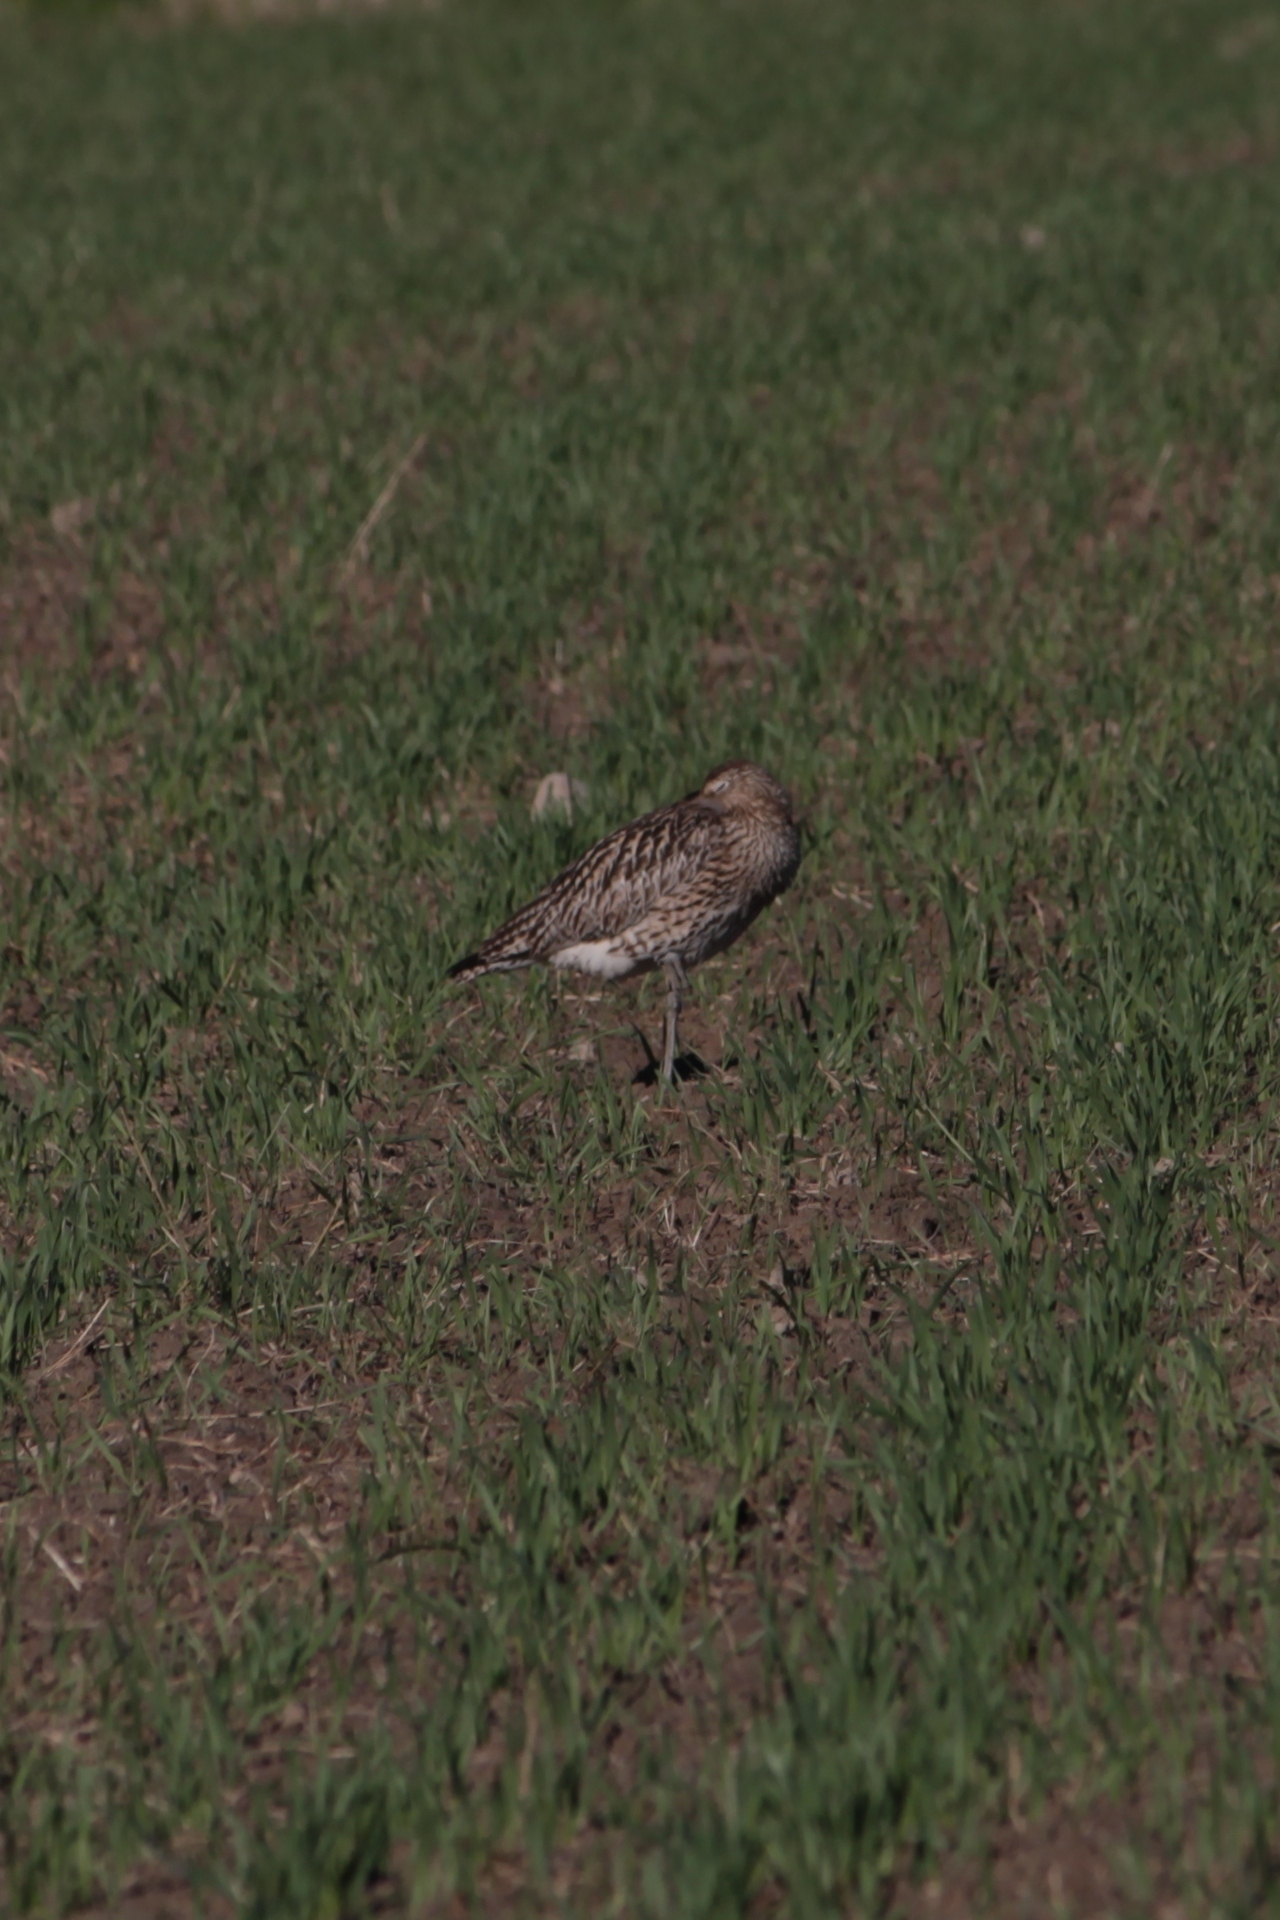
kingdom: Animalia
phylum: Chordata
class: Aves
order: Charadriiformes
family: Scolopacidae
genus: Numenius
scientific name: Numenius arquata
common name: Eurasian curlew
